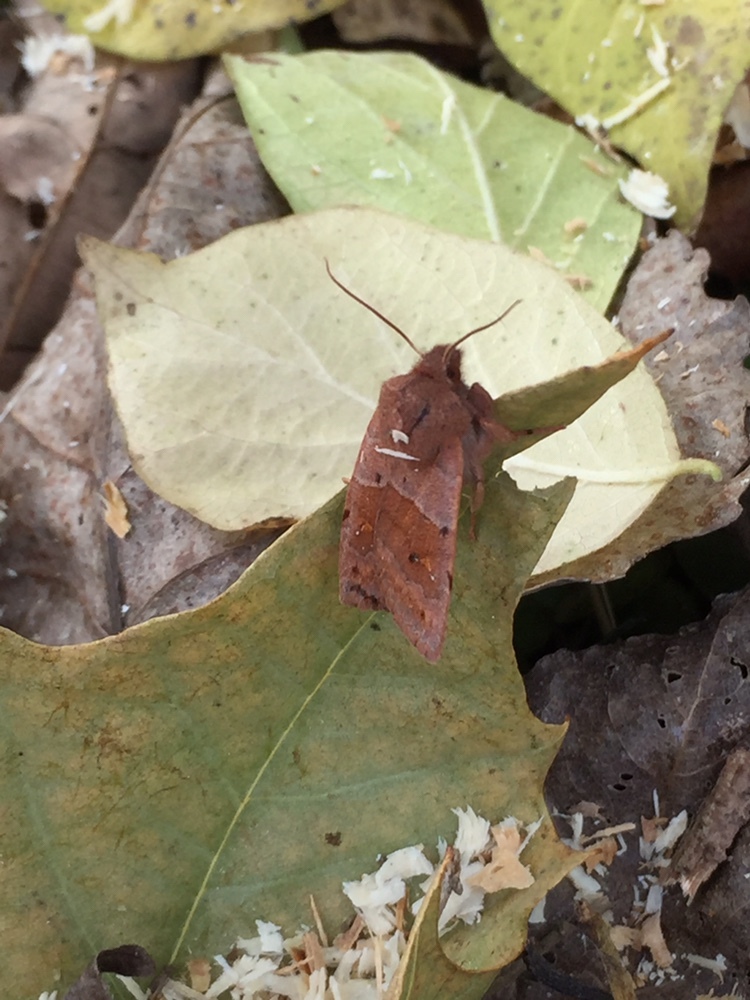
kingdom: Animalia
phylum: Arthropoda
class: Insecta
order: Lepidoptera
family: Noctuidae
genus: Eupsilia
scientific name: Eupsilia morrisoni
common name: Morrison's sallow
